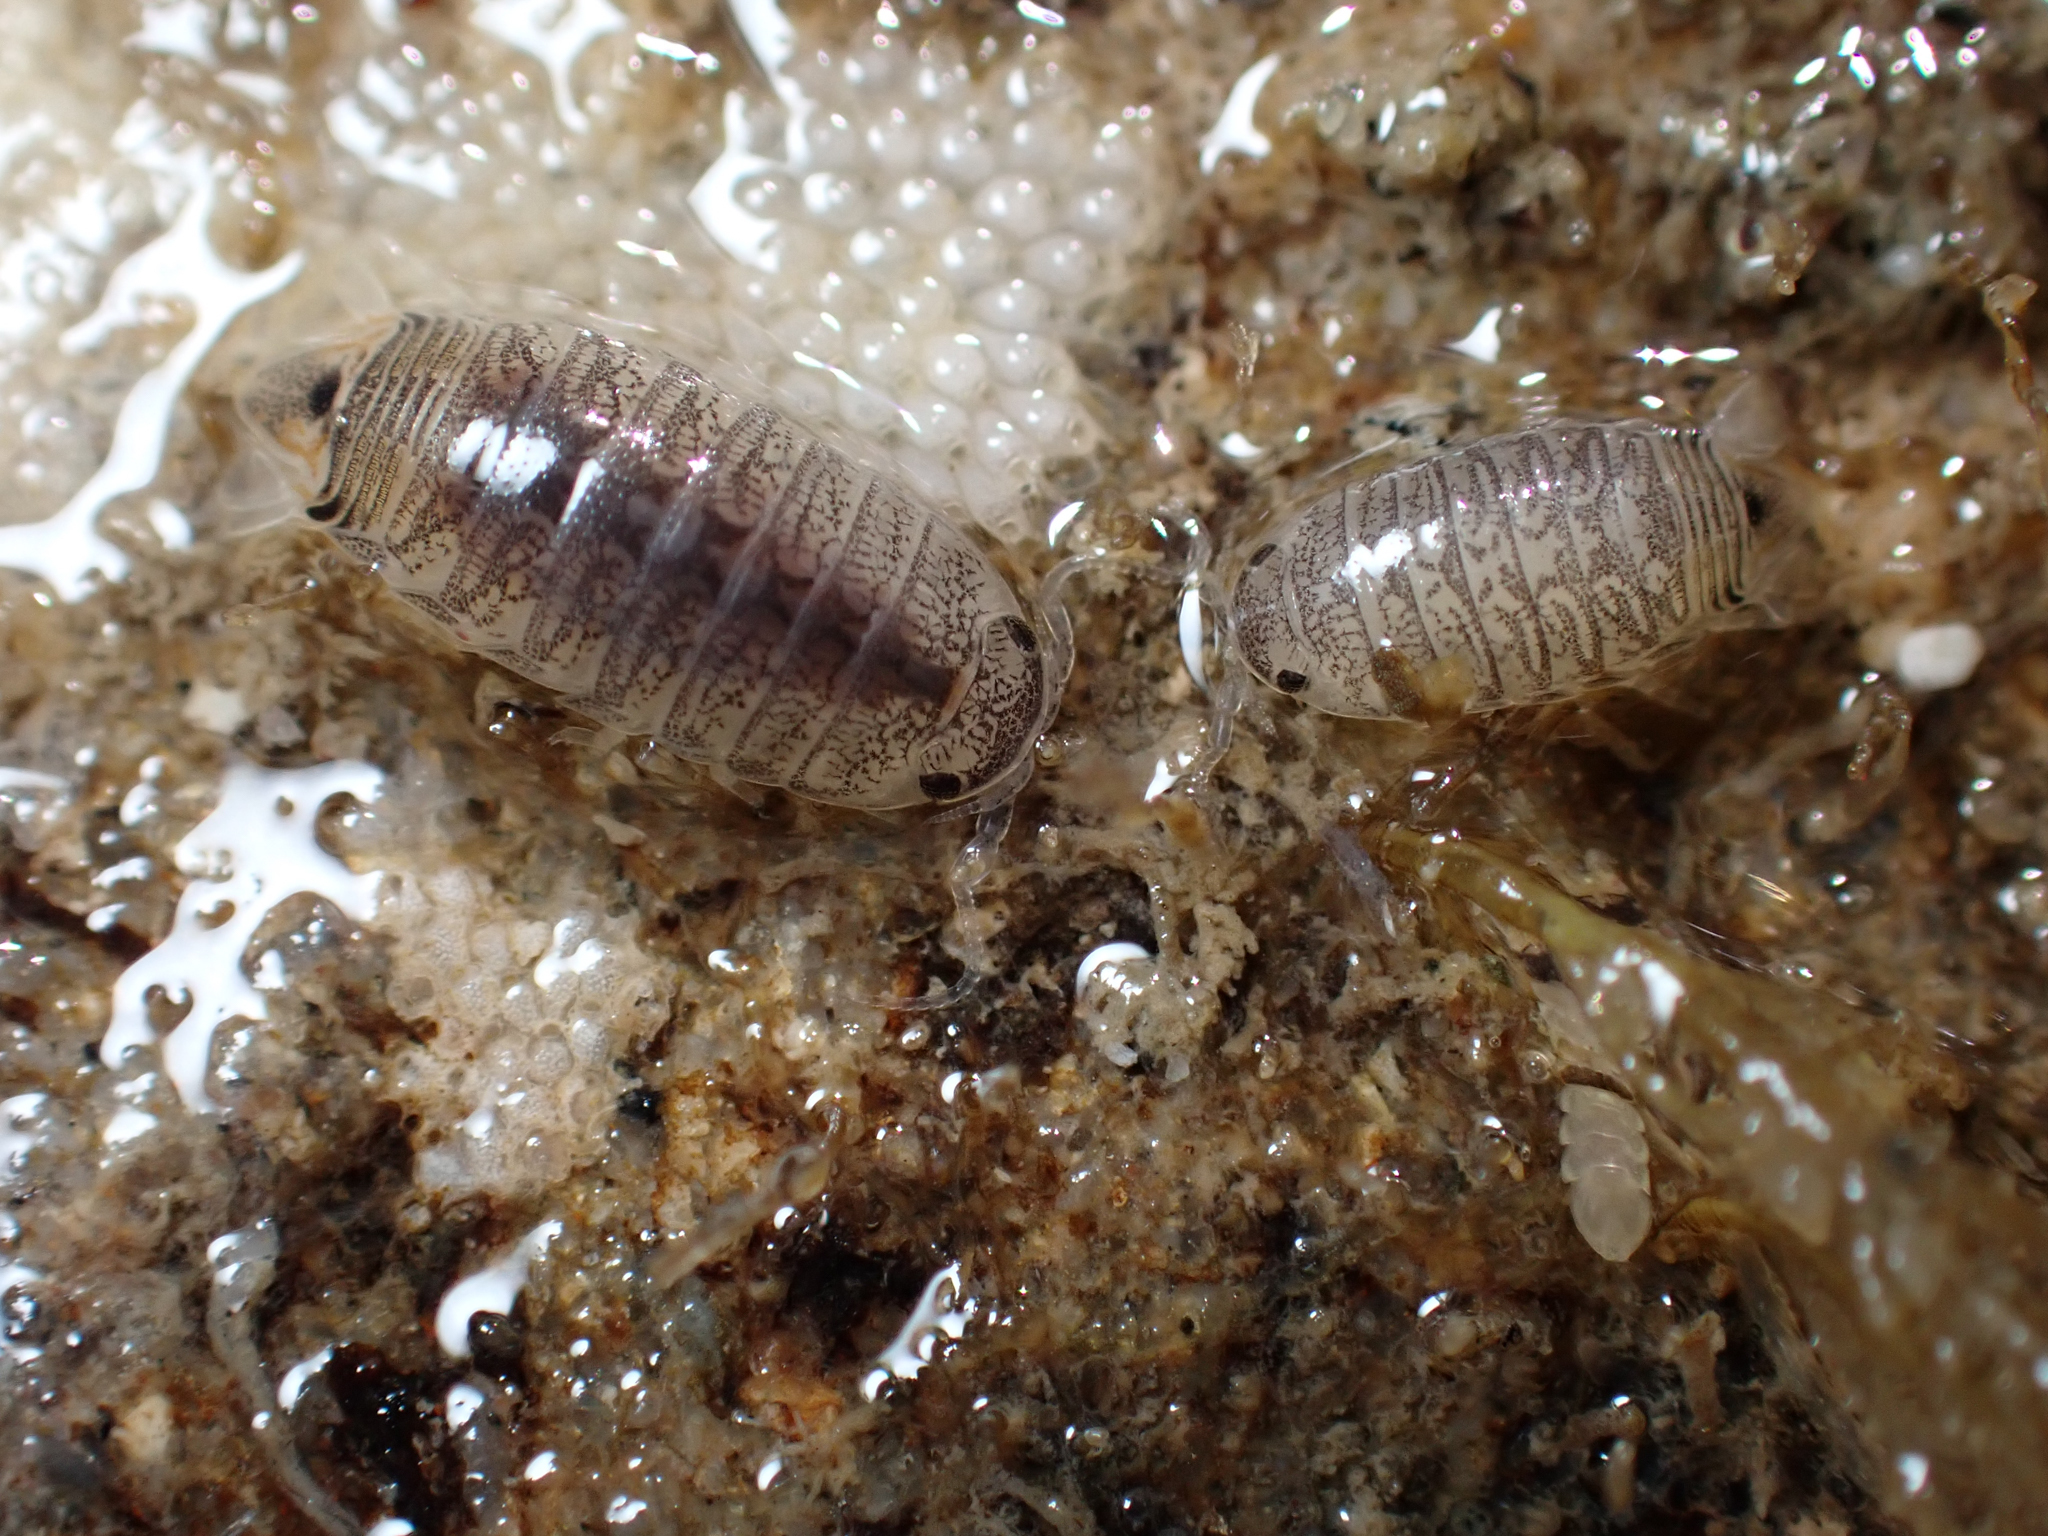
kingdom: Animalia
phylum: Arthropoda
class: Malacostraca
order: Isopoda
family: Cirolanidae
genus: Cirolana
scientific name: Cirolana harfordi
